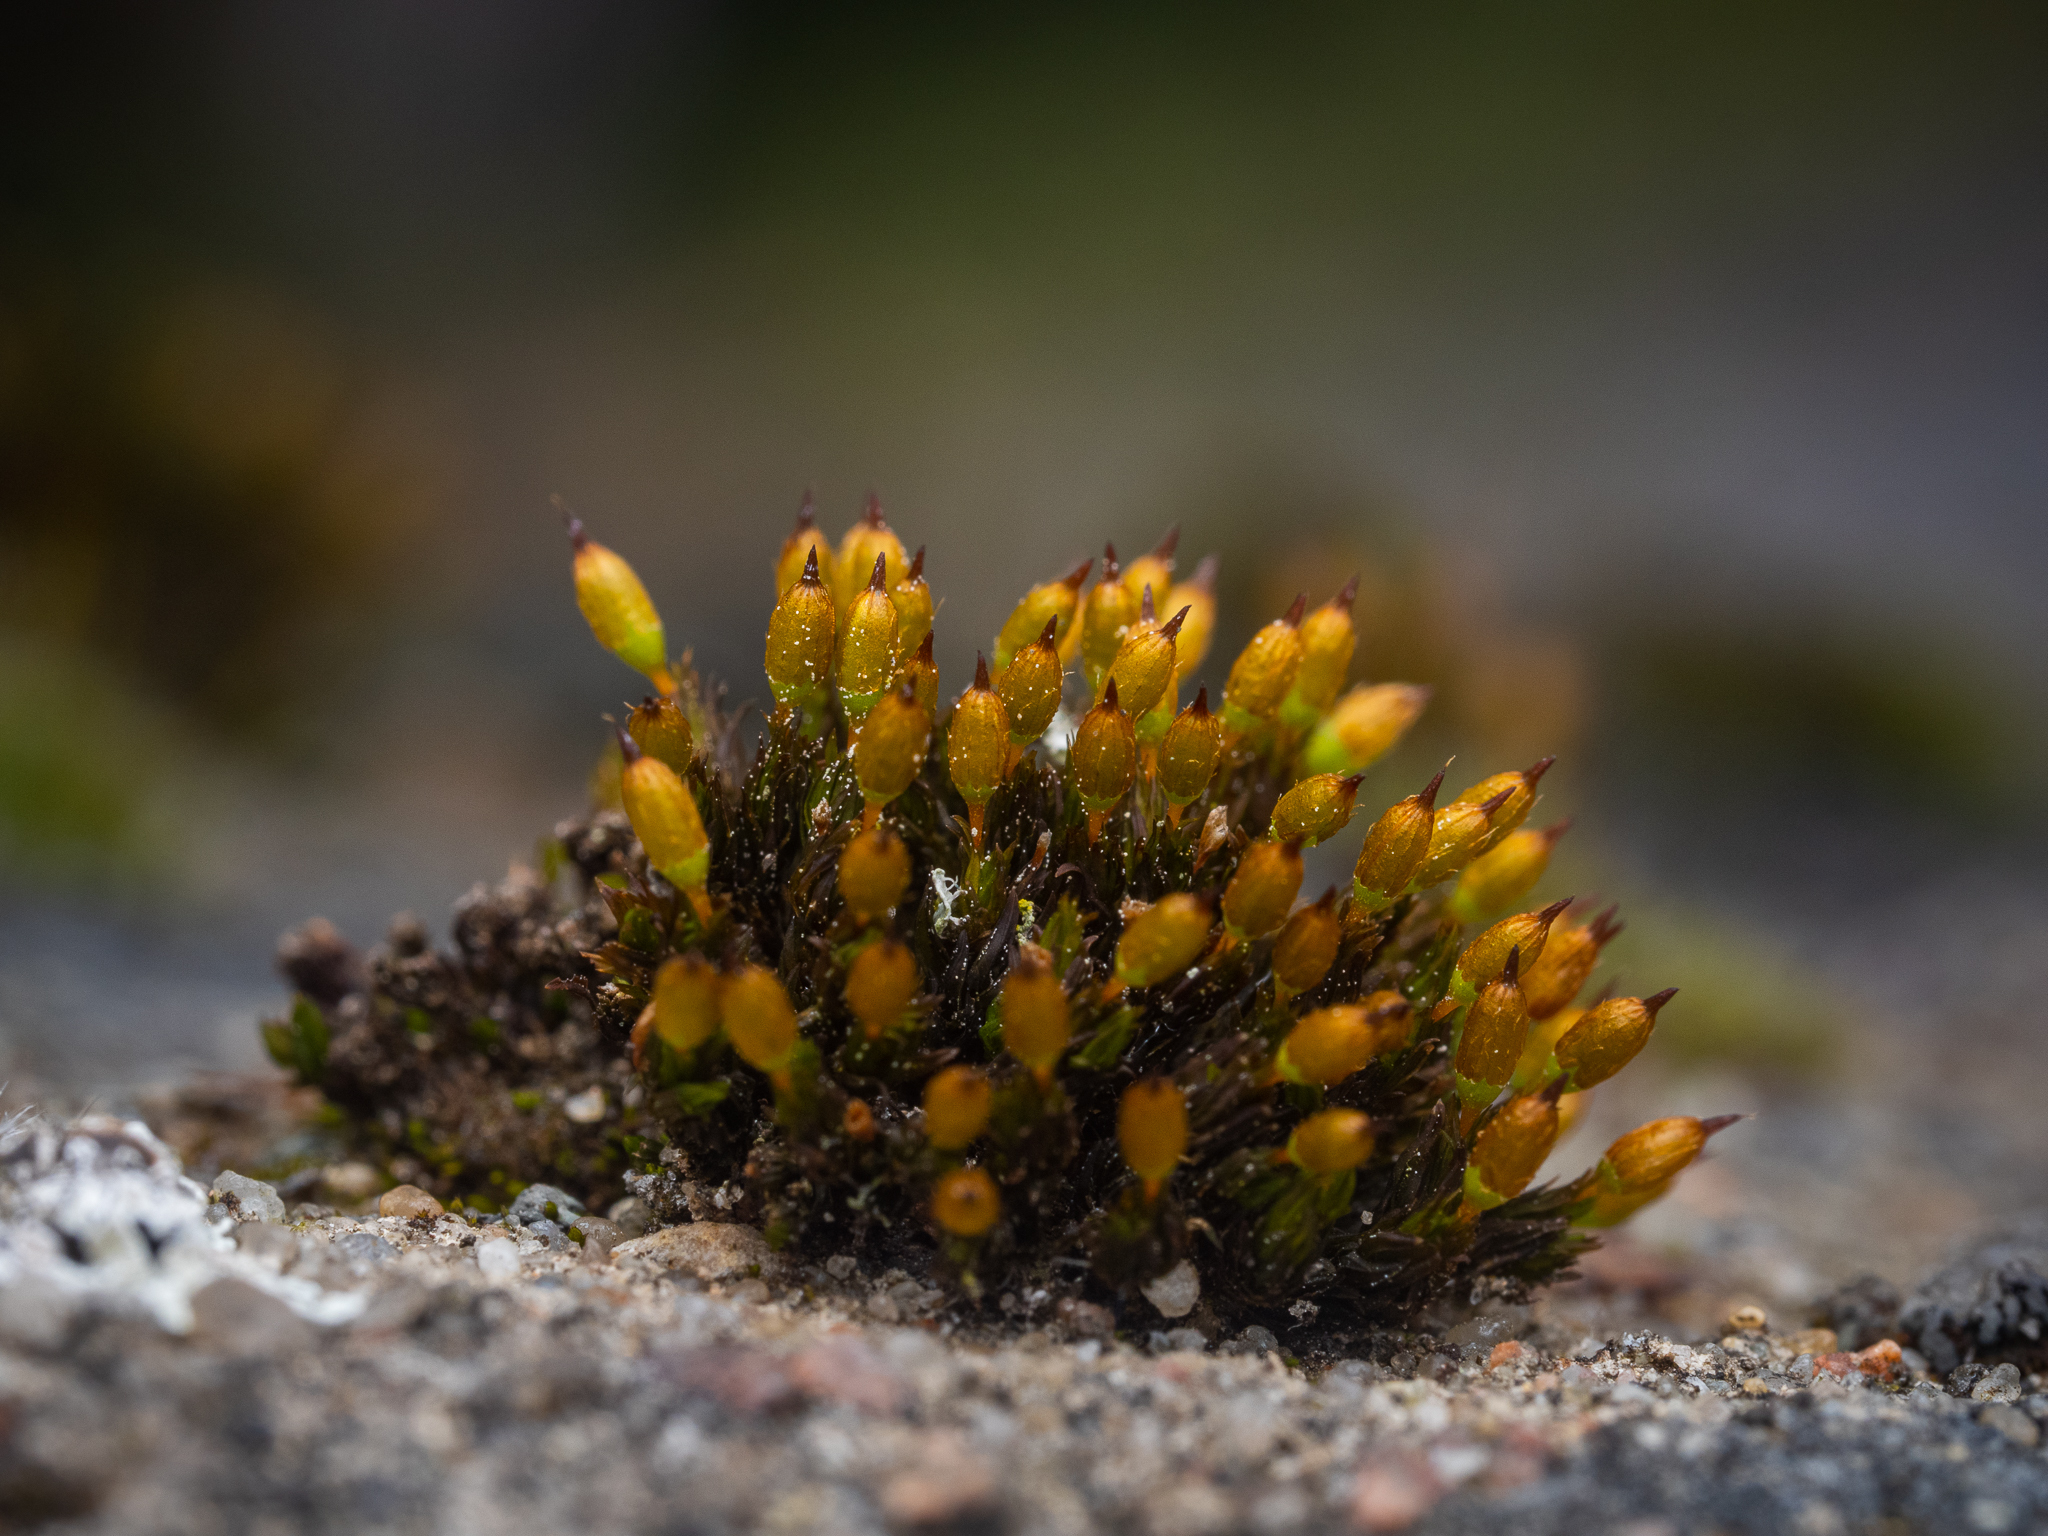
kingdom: Plantae
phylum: Bryophyta
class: Bryopsida
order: Orthotrichales
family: Orthotrichaceae
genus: Orthotrichum
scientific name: Orthotrichum anomalum
